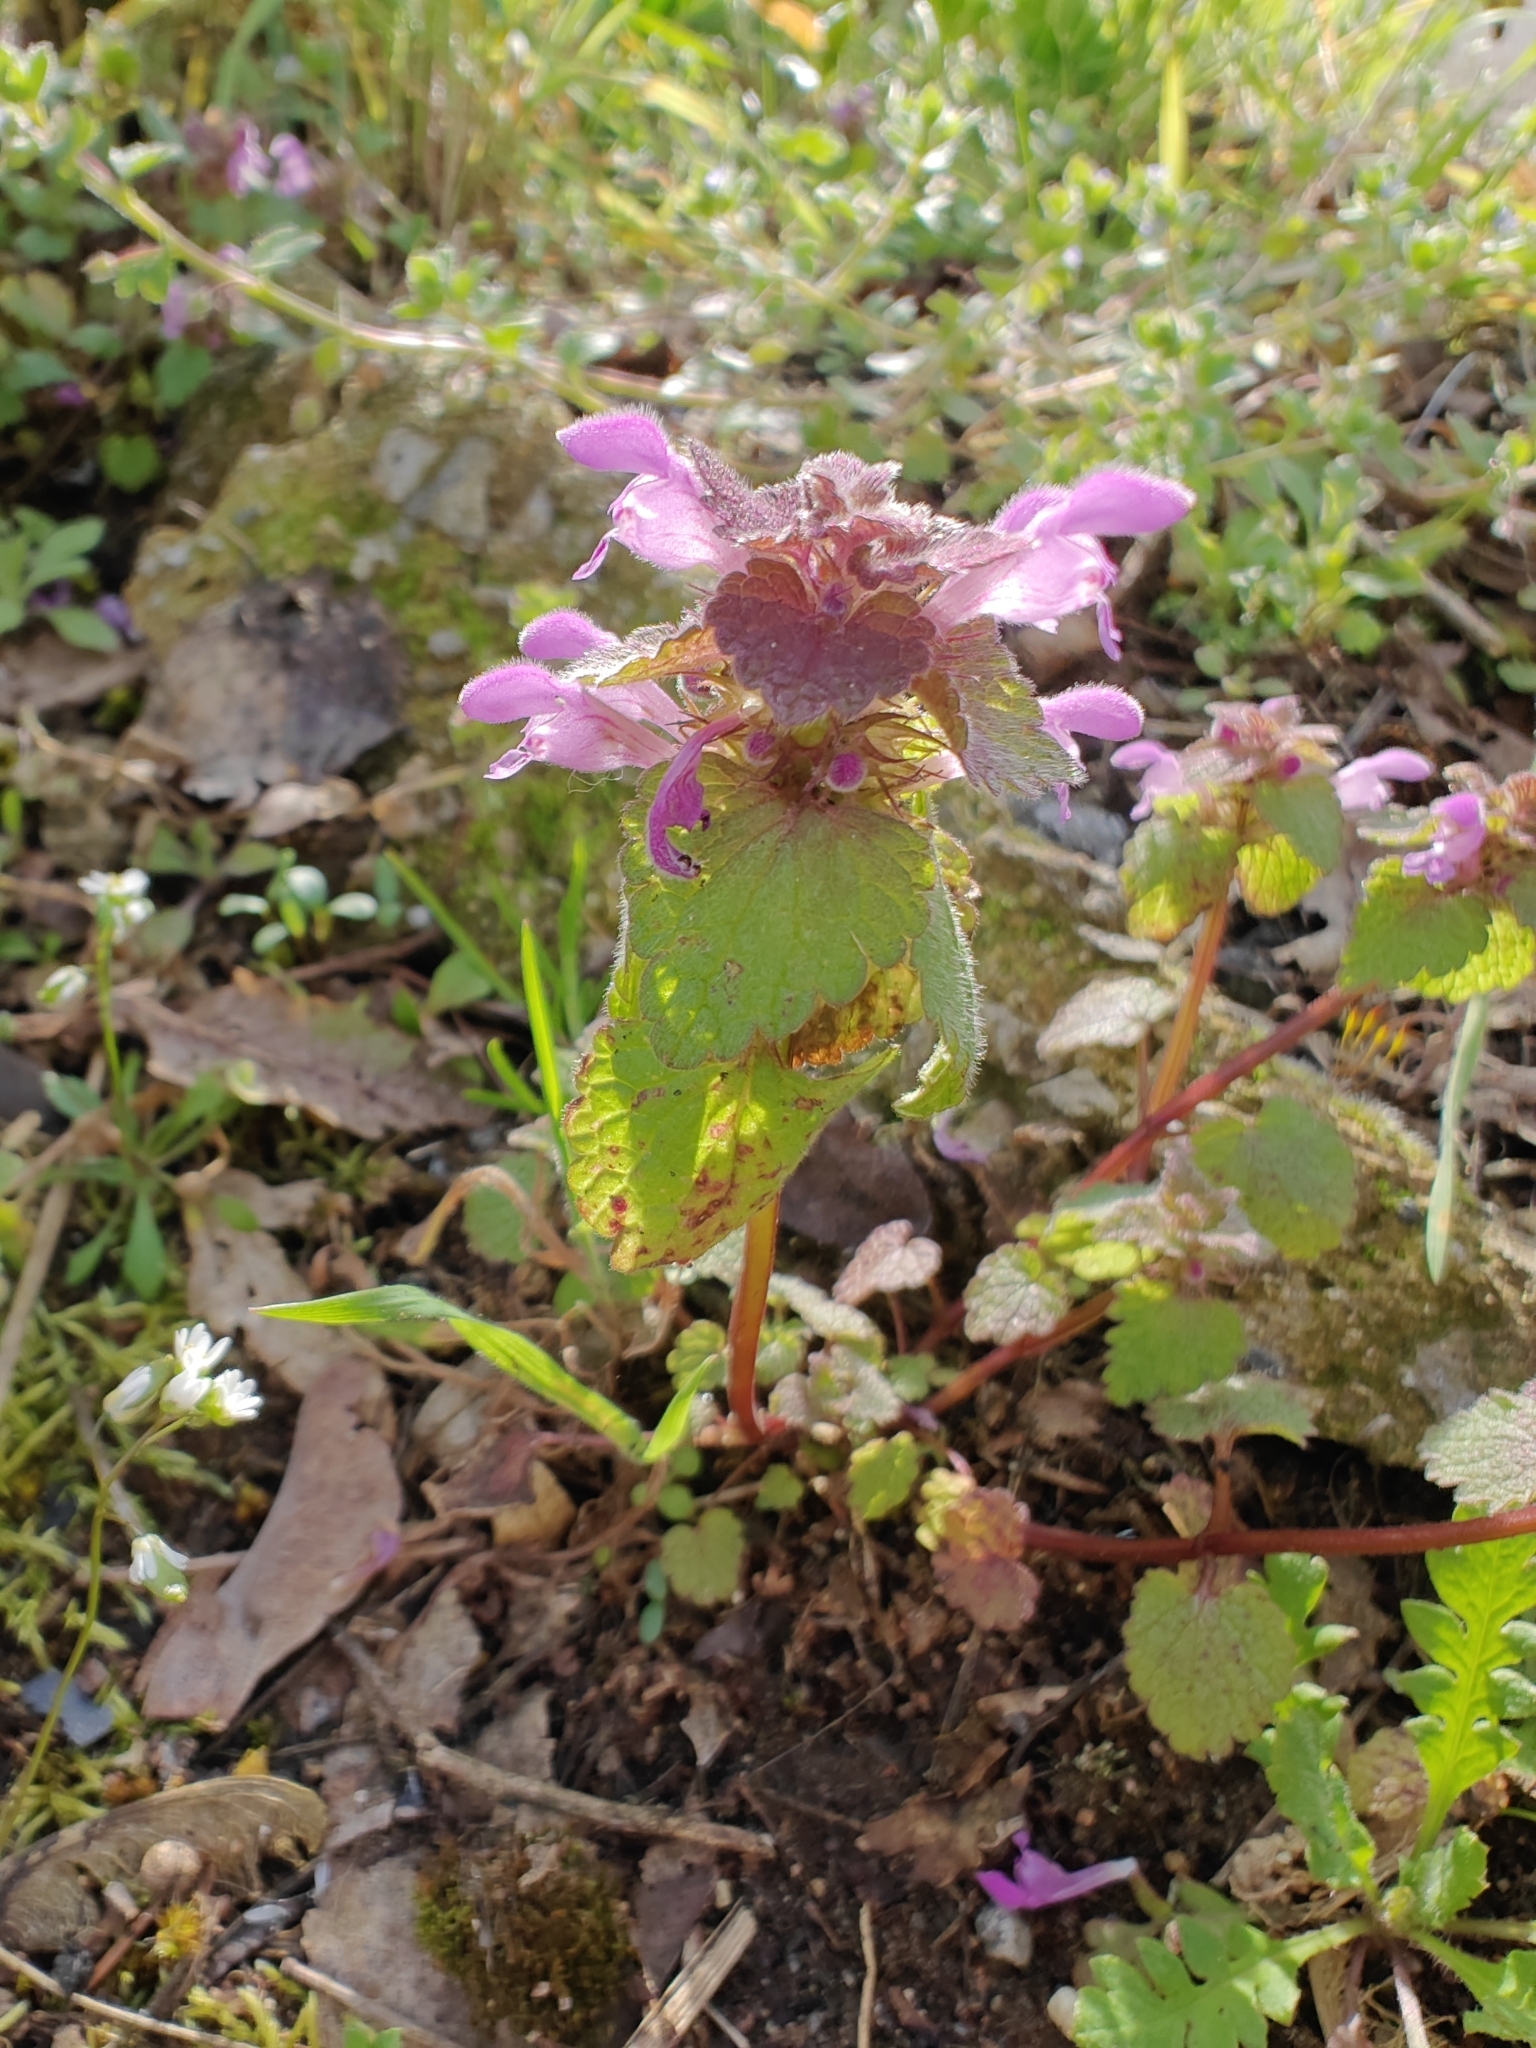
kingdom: Plantae
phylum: Tracheophyta
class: Magnoliopsida
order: Lamiales
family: Lamiaceae
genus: Lamium
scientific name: Lamium purpureum
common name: Red dead-nettle
